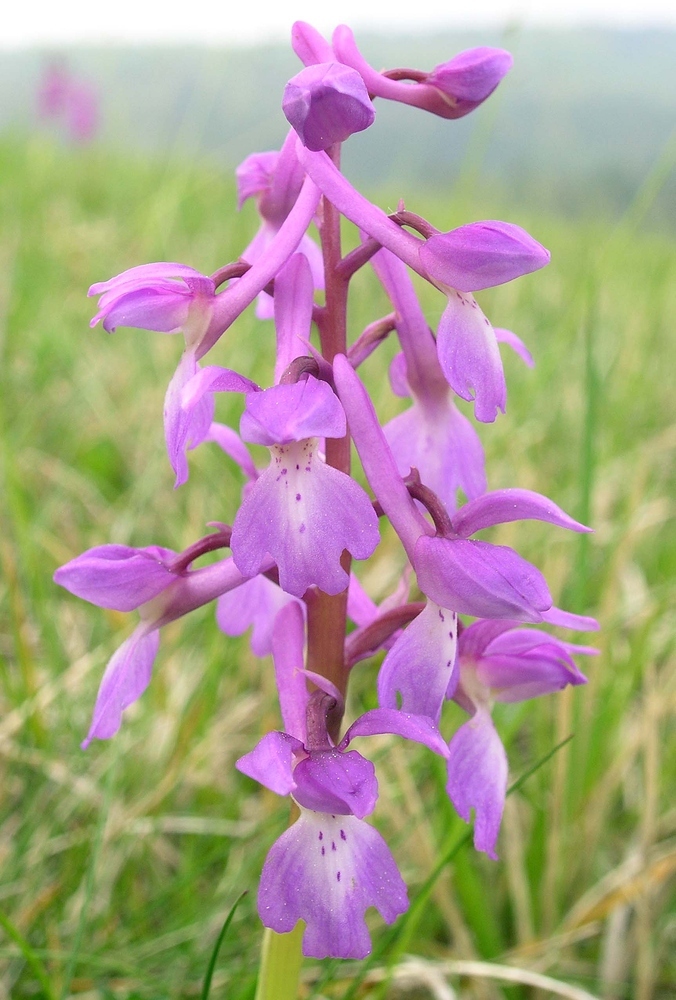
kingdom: Plantae
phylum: Tracheophyta
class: Liliopsida
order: Asparagales
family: Orchidaceae
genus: Orchis
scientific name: Orchis mascula
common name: Early-purple orchid
